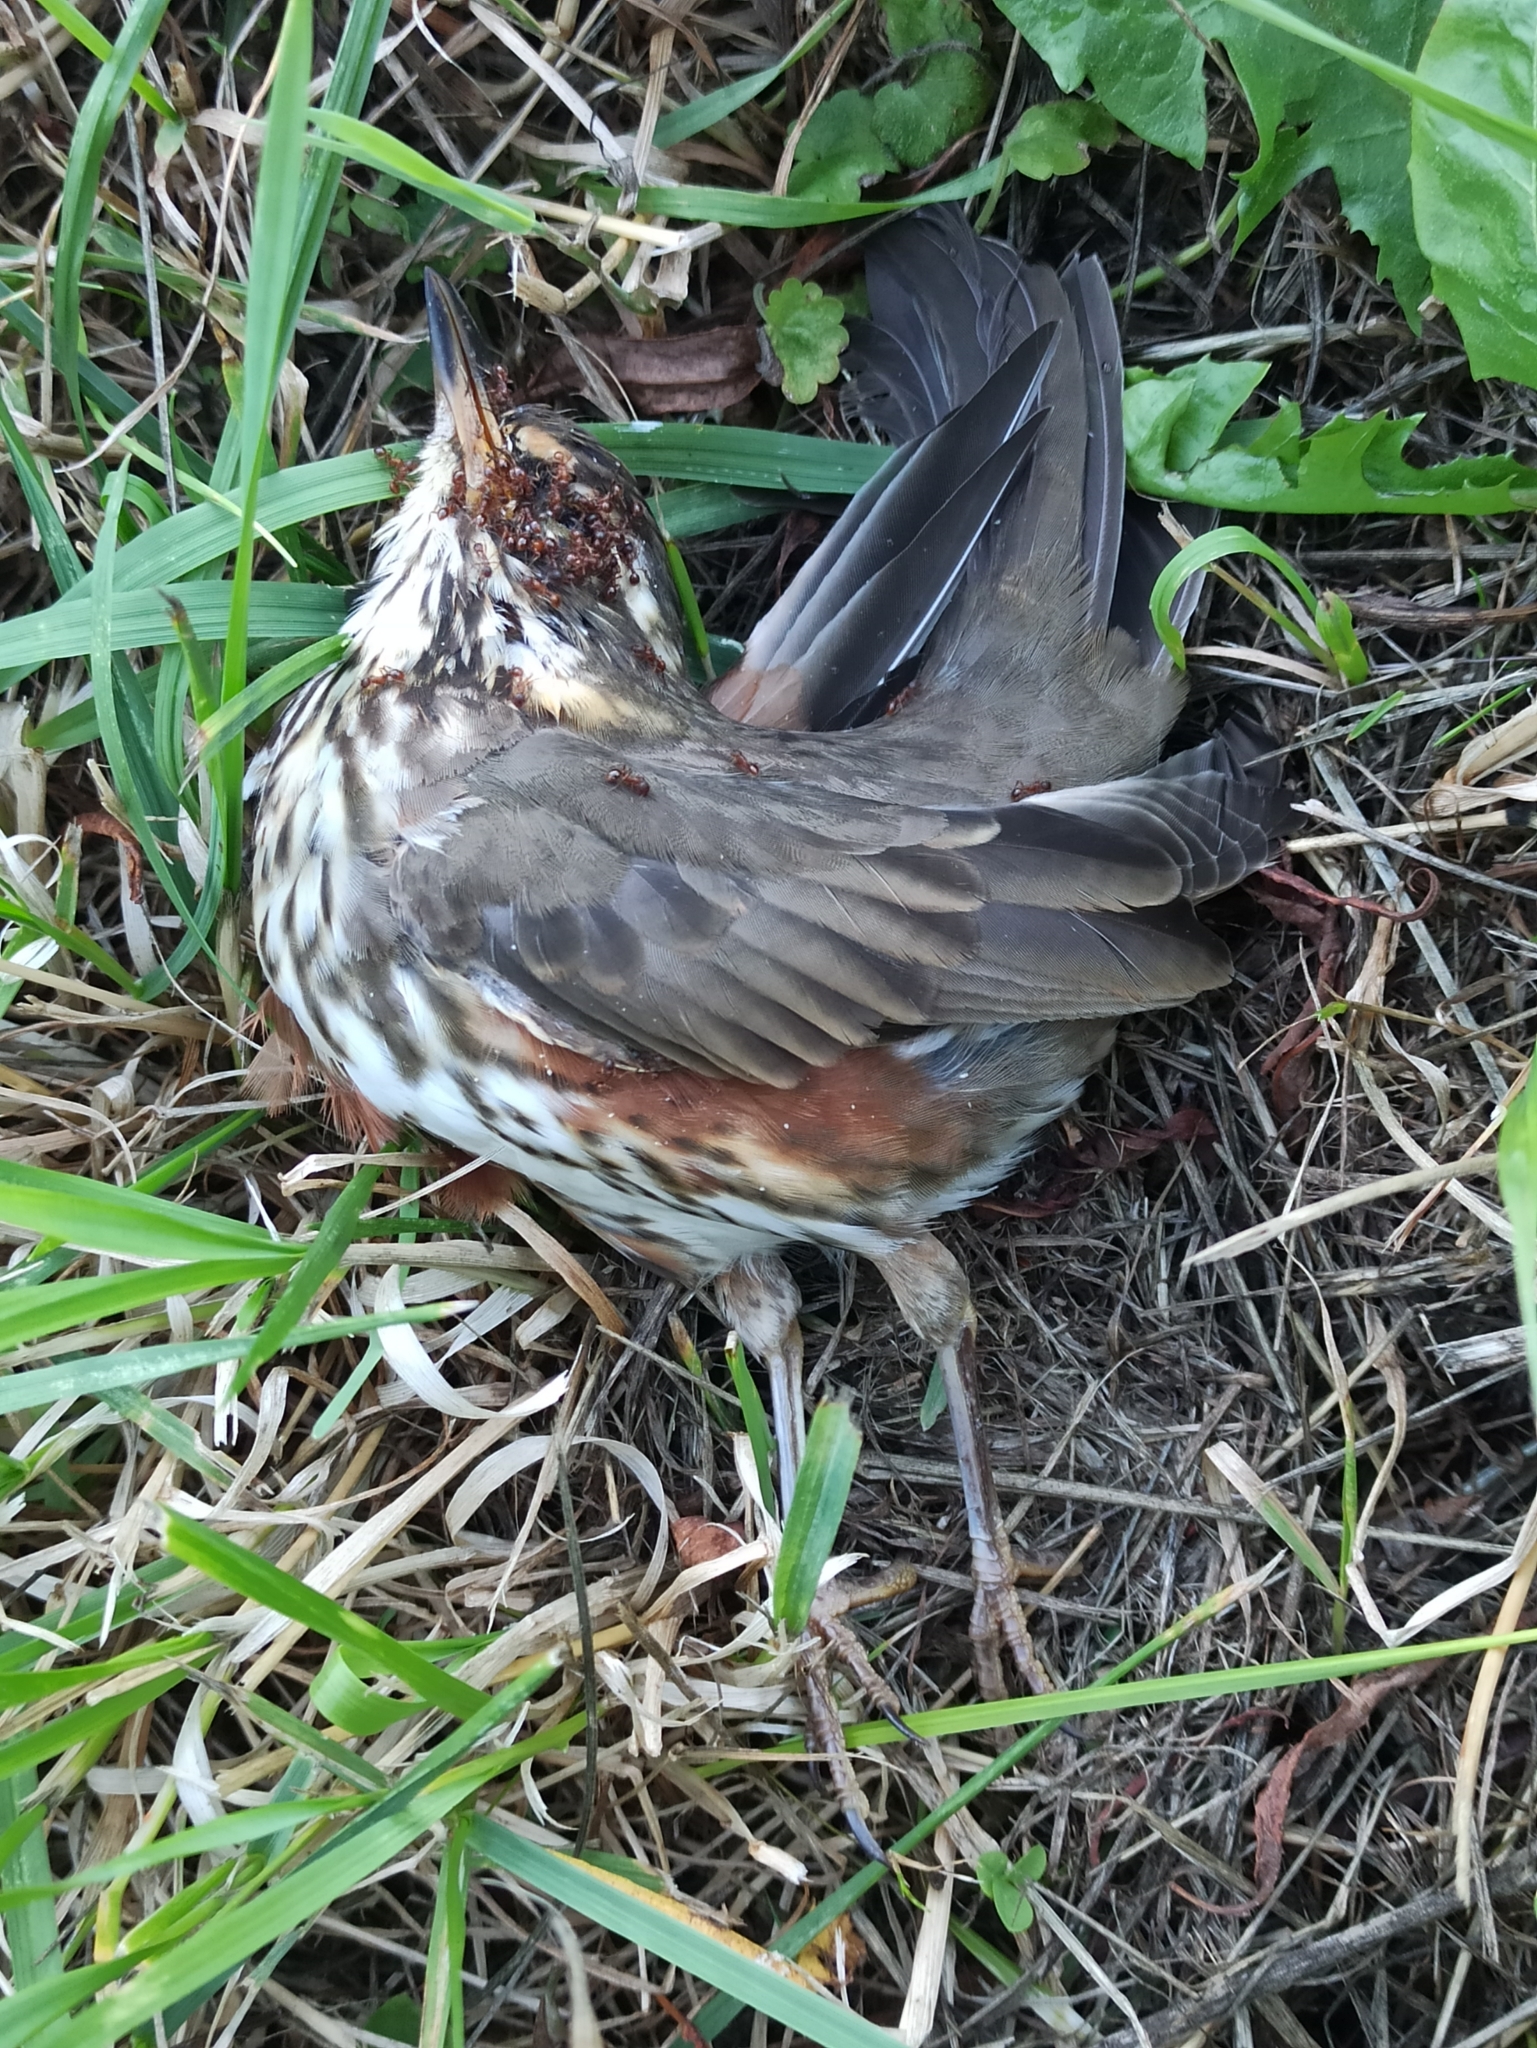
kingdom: Animalia
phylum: Chordata
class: Aves
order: Passeriformes
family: Turdidae
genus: Turdus
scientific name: Turdus iliacus
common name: Redwing
